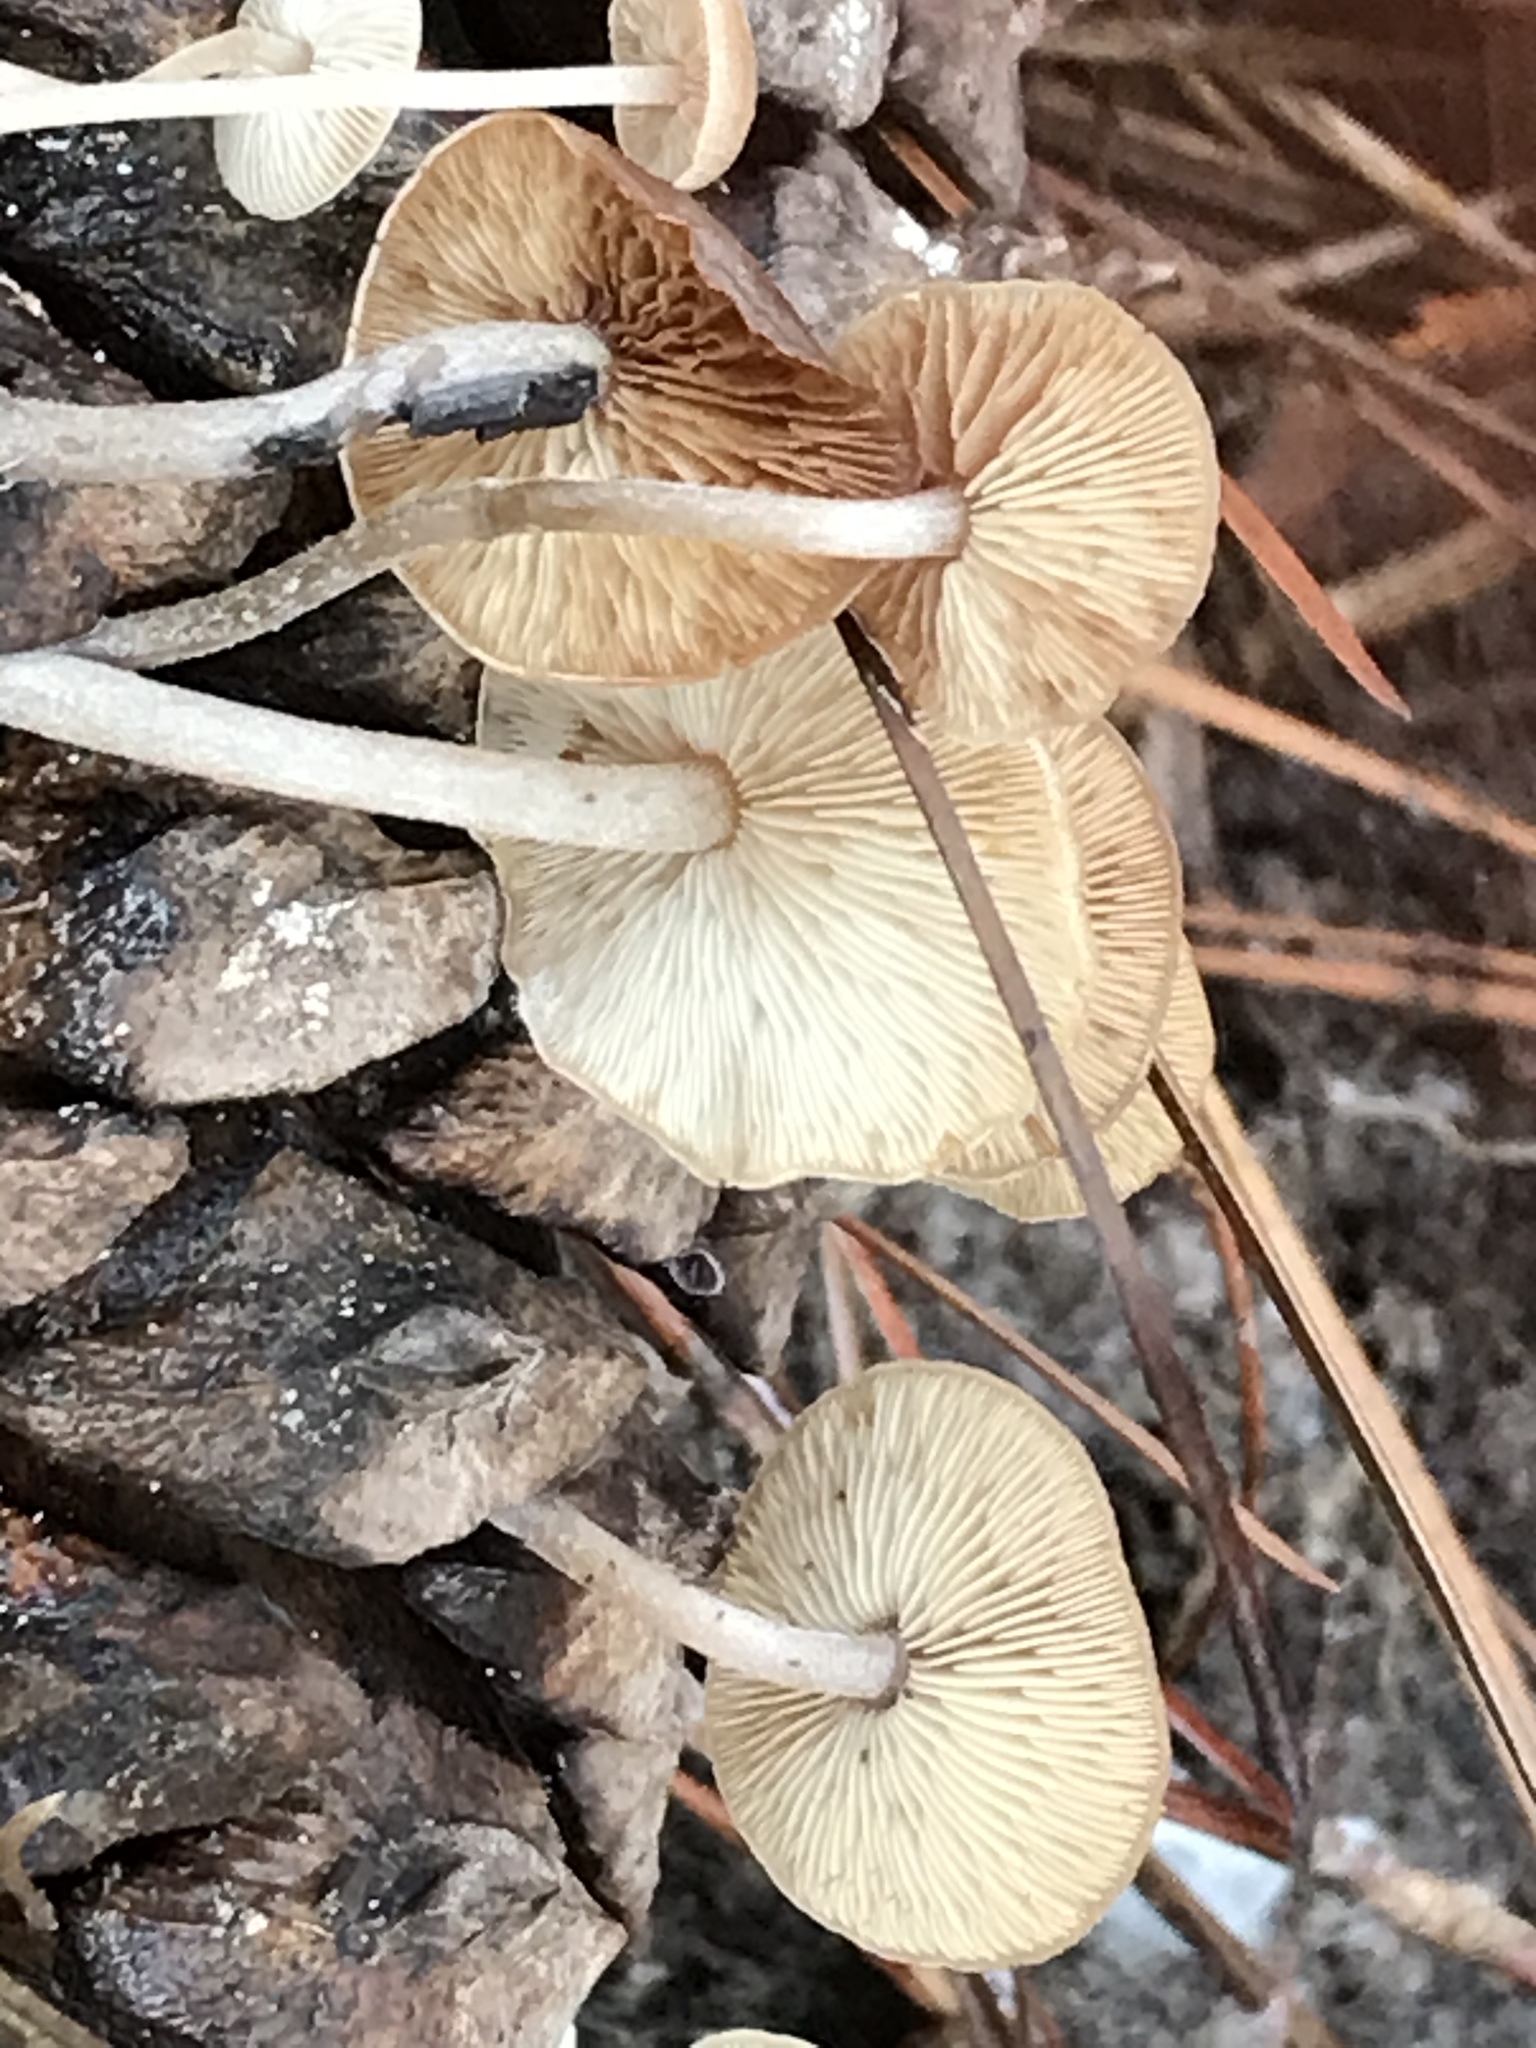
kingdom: Fungi
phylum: Basidiomycota
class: Agaricomycetes
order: Agaricales
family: Marasmiaceae
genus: Baeospora
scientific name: Baeospora myosura
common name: Conifercone cap
